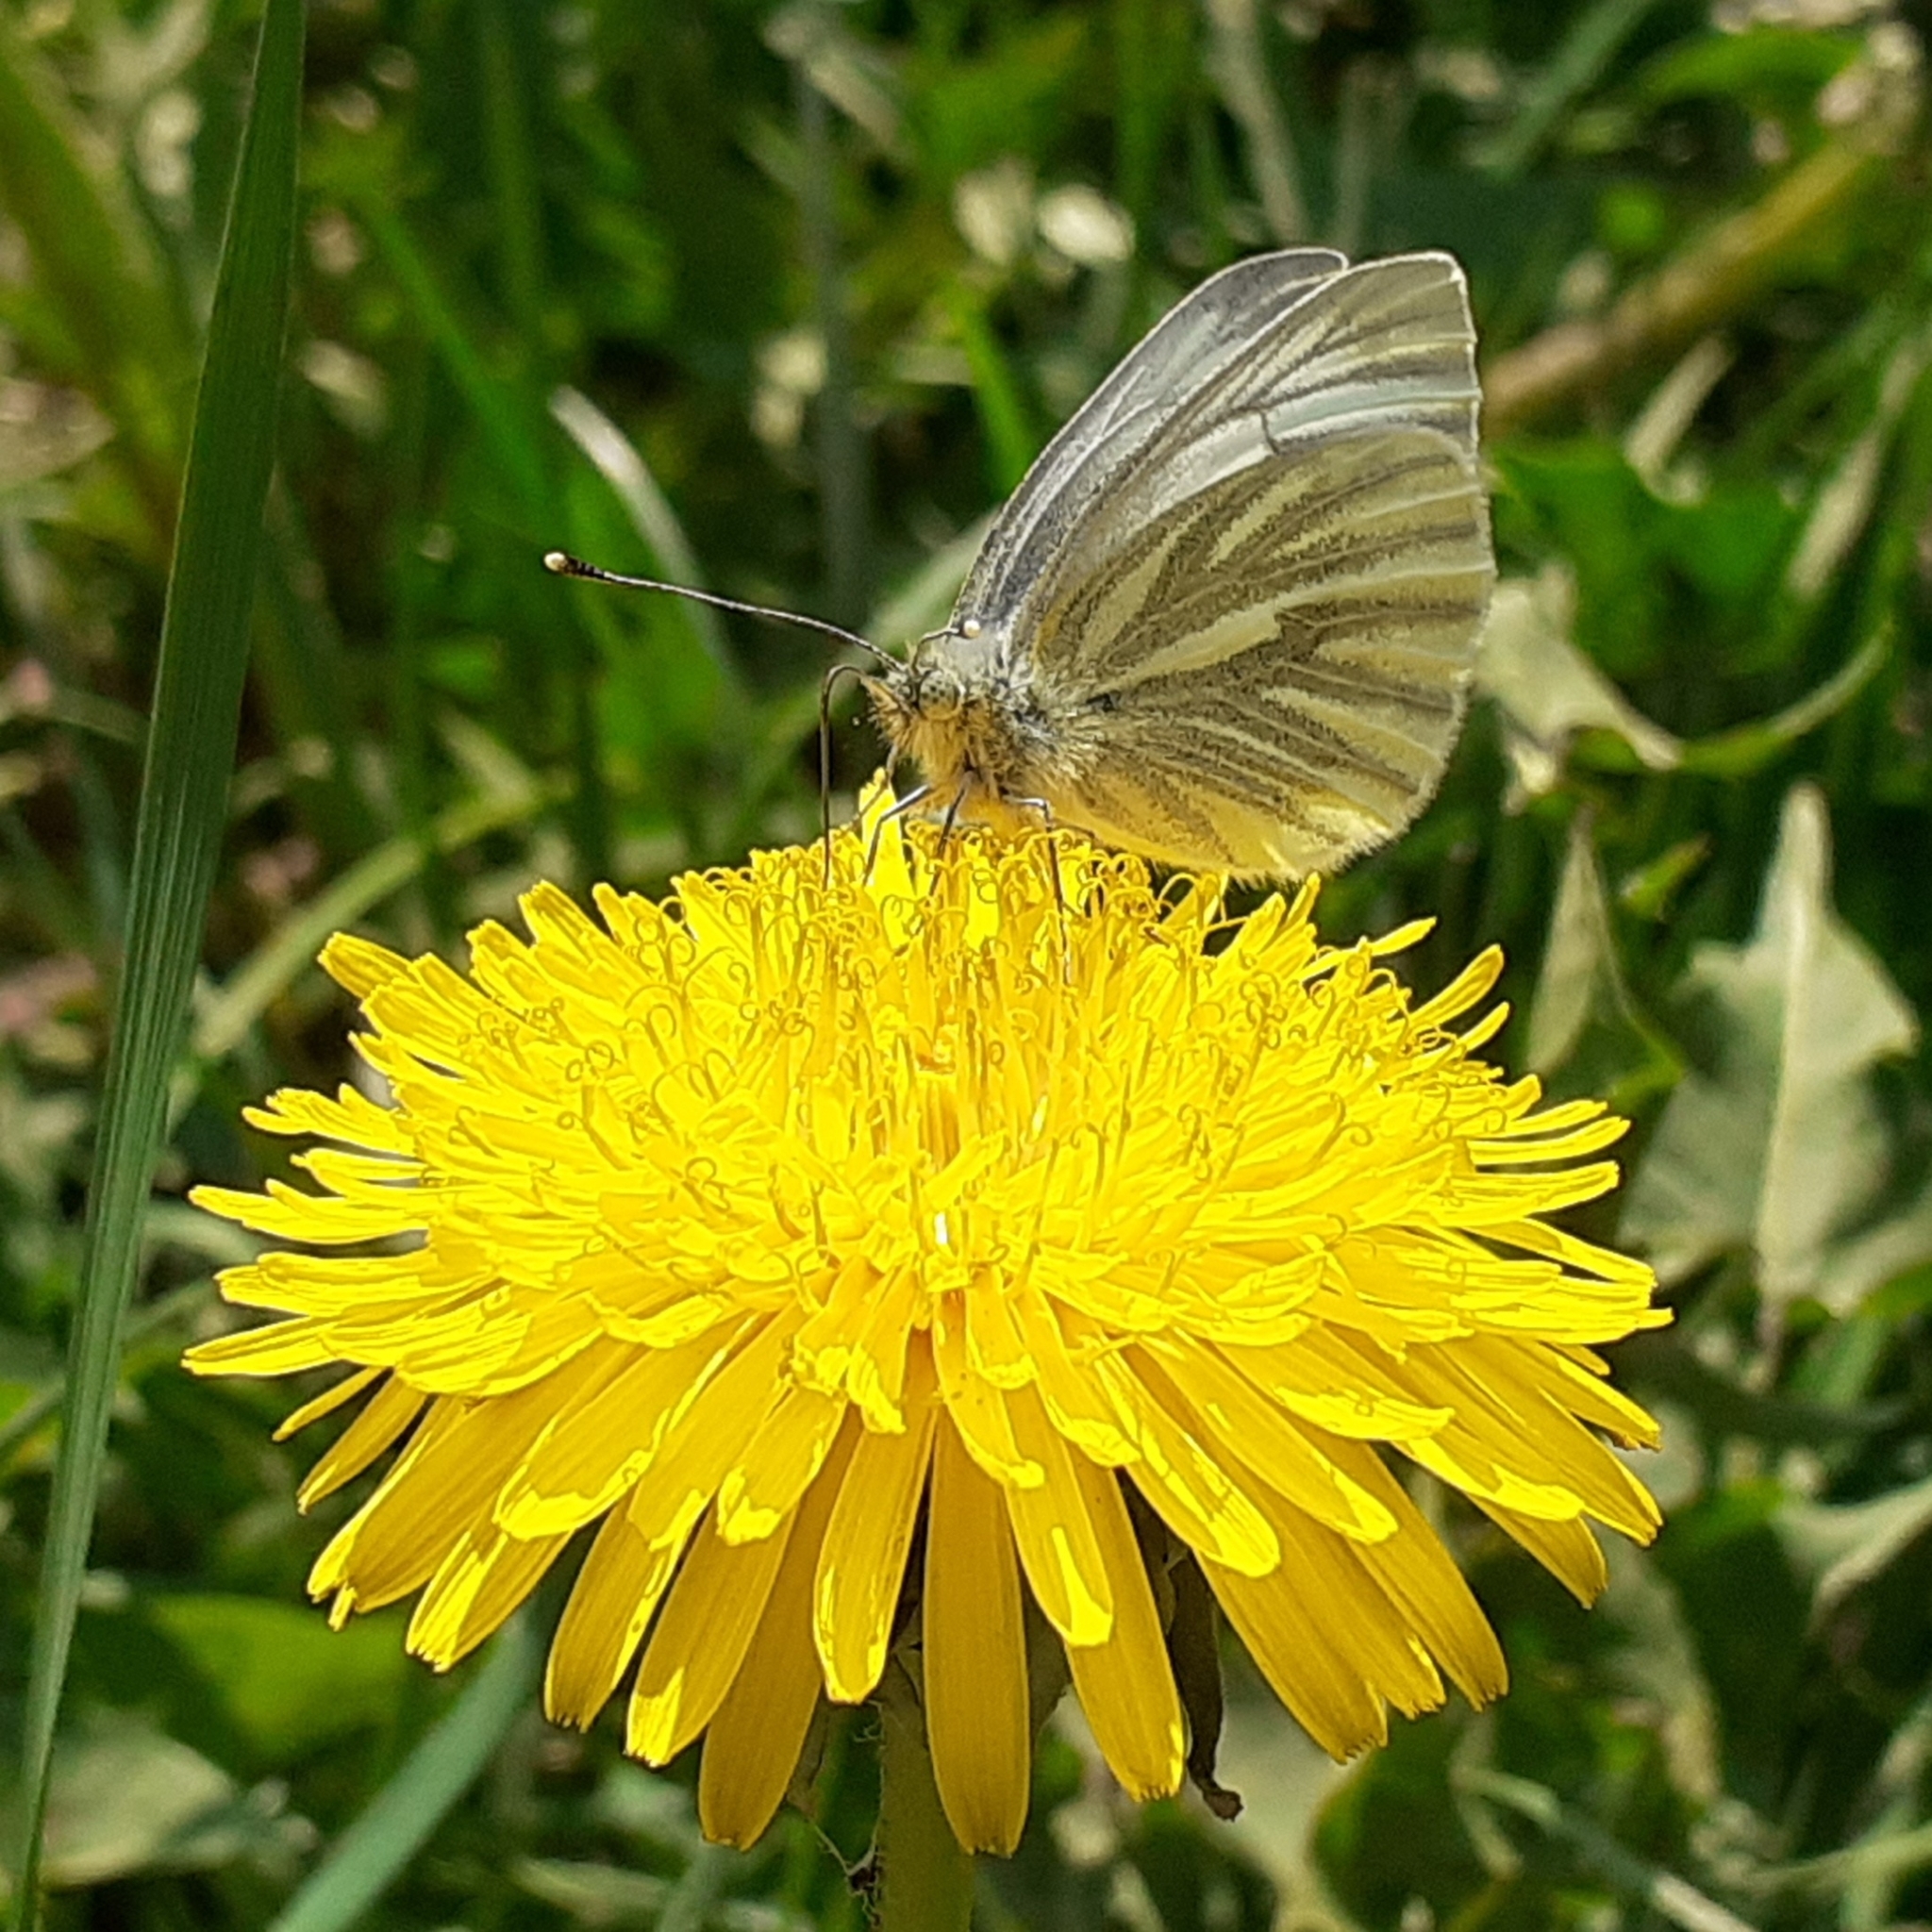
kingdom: Animalia
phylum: Arthropoda
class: Insecta
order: Lepidoptera
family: Pieridae
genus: Pieris
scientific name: Pieris napi
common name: Green-veined white
